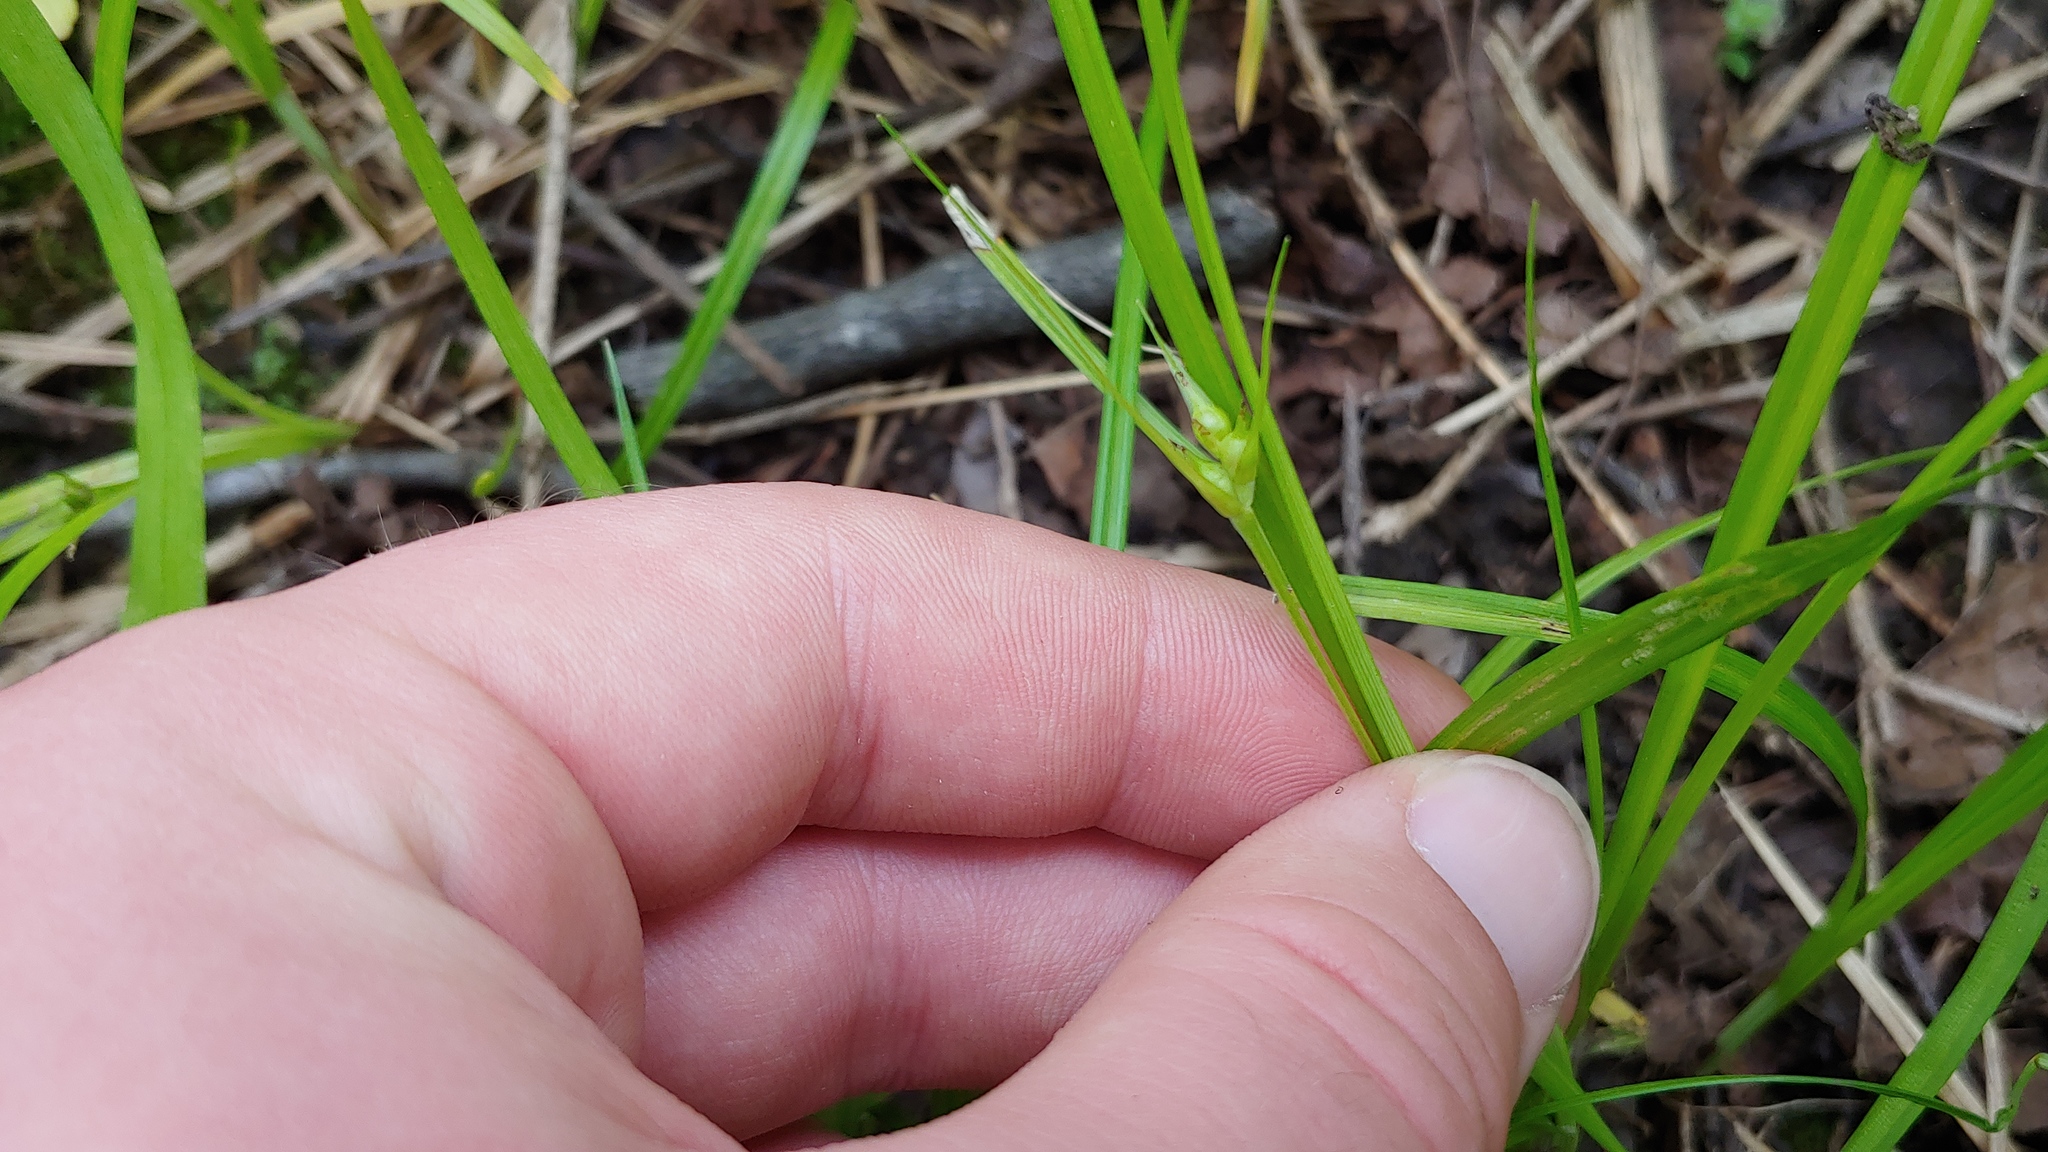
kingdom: Plantae
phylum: Tracheophyta
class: Liliopsida
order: Poales
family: Cyperaceae
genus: Carex
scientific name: Carex jamesii
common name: Grass sedge
